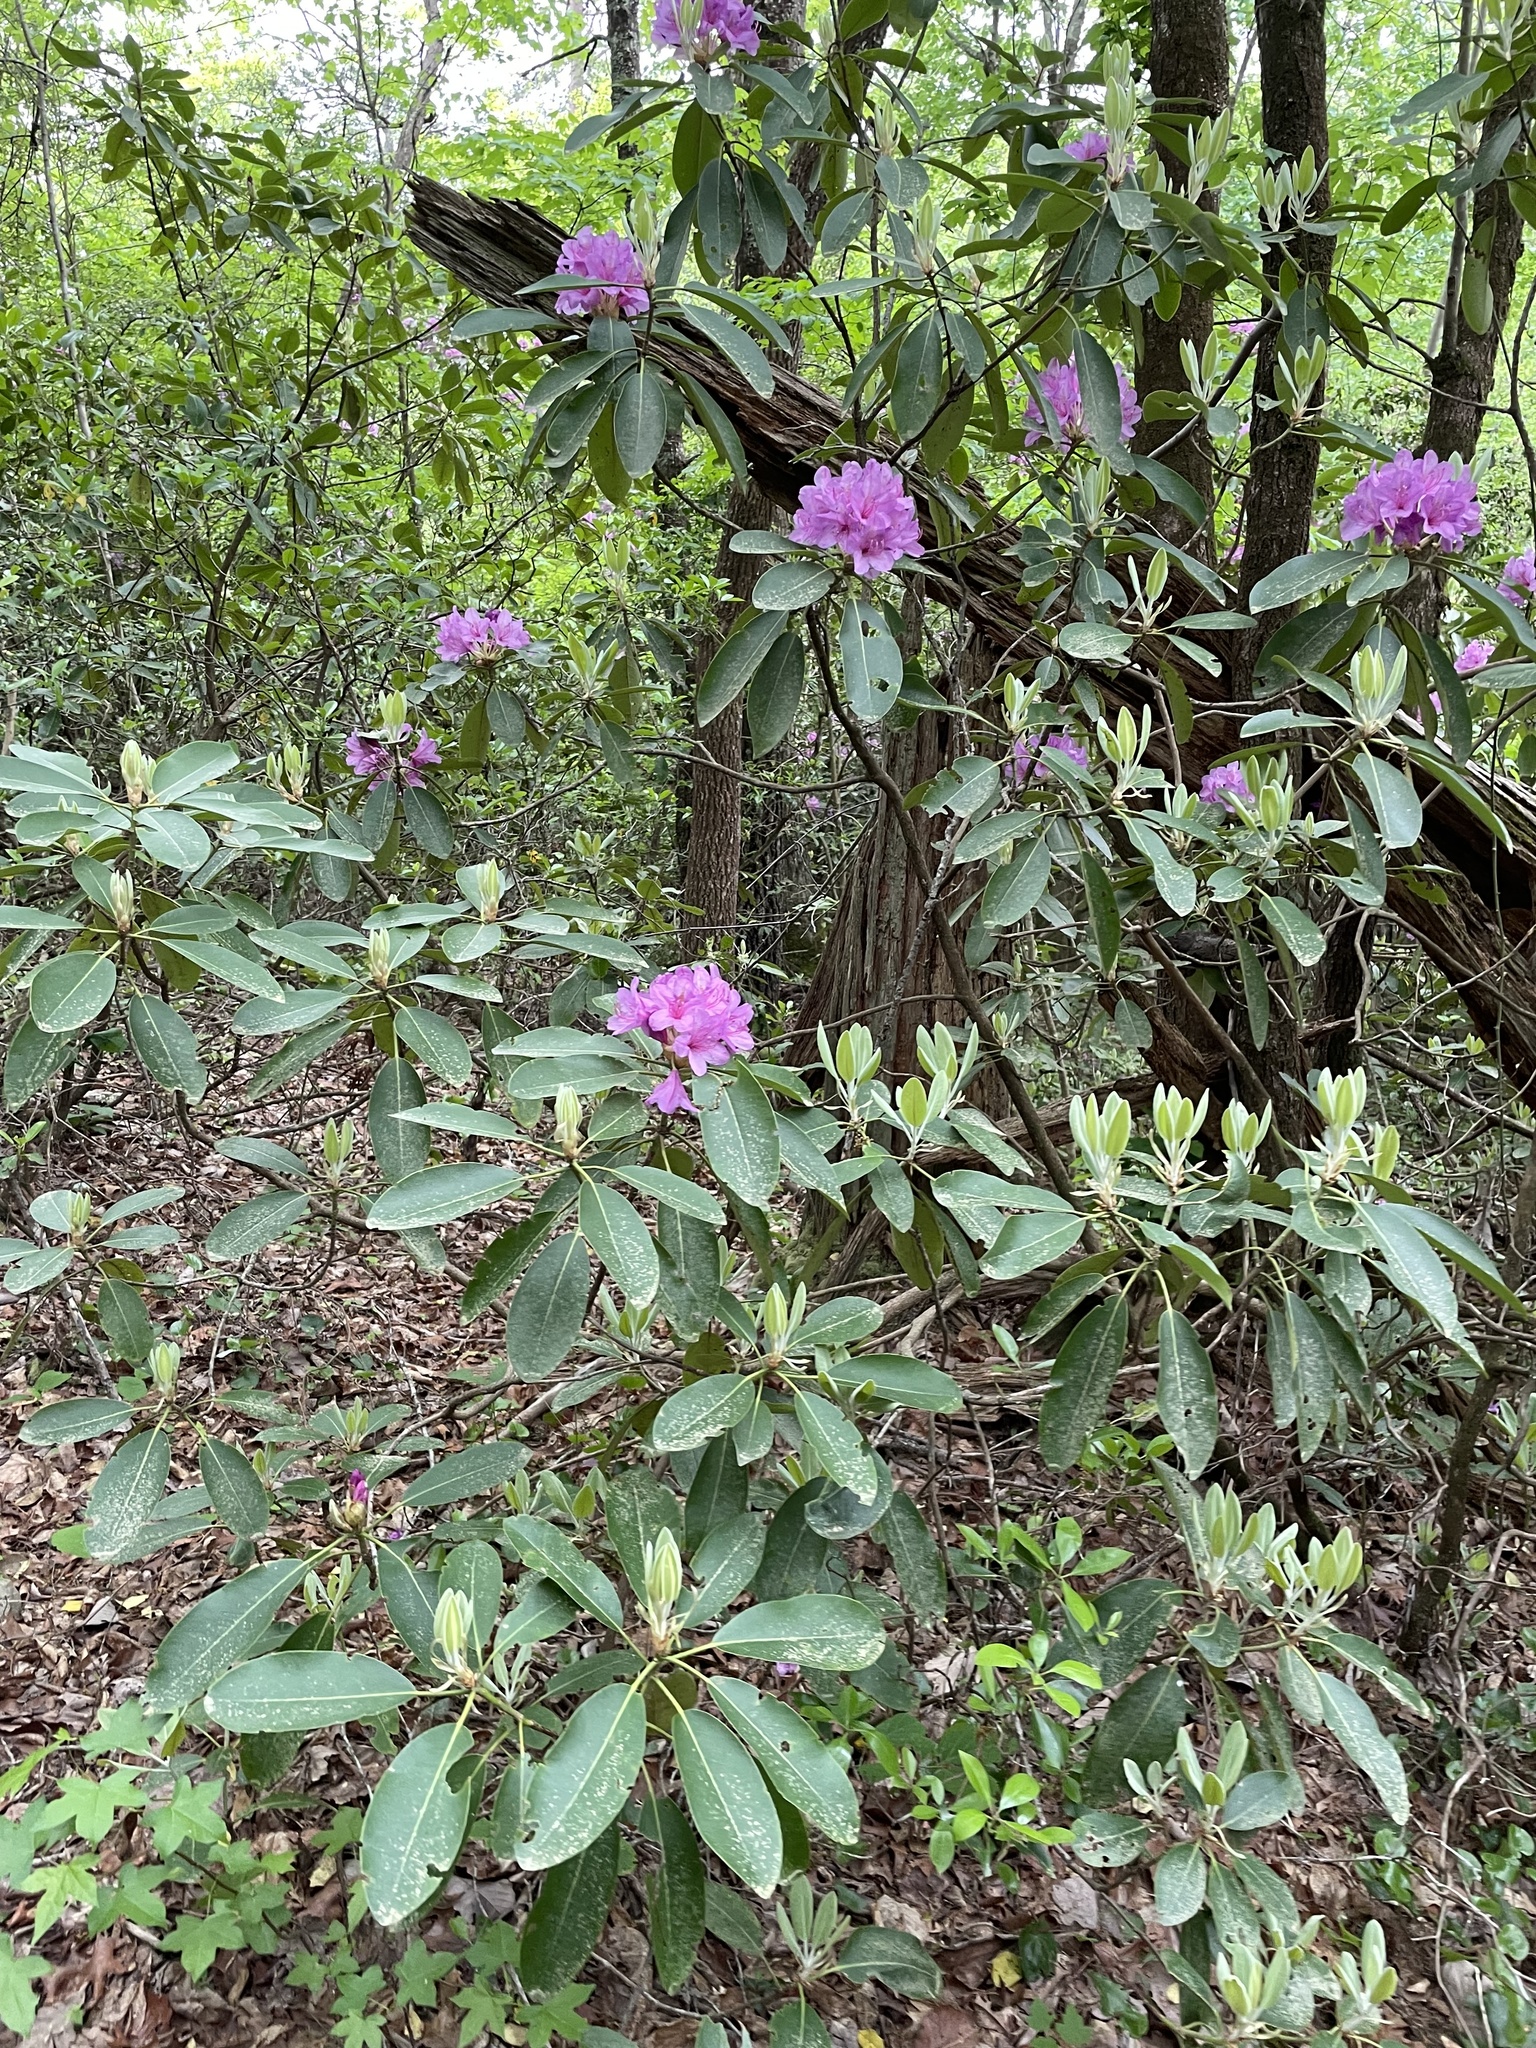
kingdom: Plantae
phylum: Tracheophyta
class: Magnoliopsida
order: Ericales
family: Ericaceae
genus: Rhododendron
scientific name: Rhododendron catawbiense
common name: Catawba rhododendron
